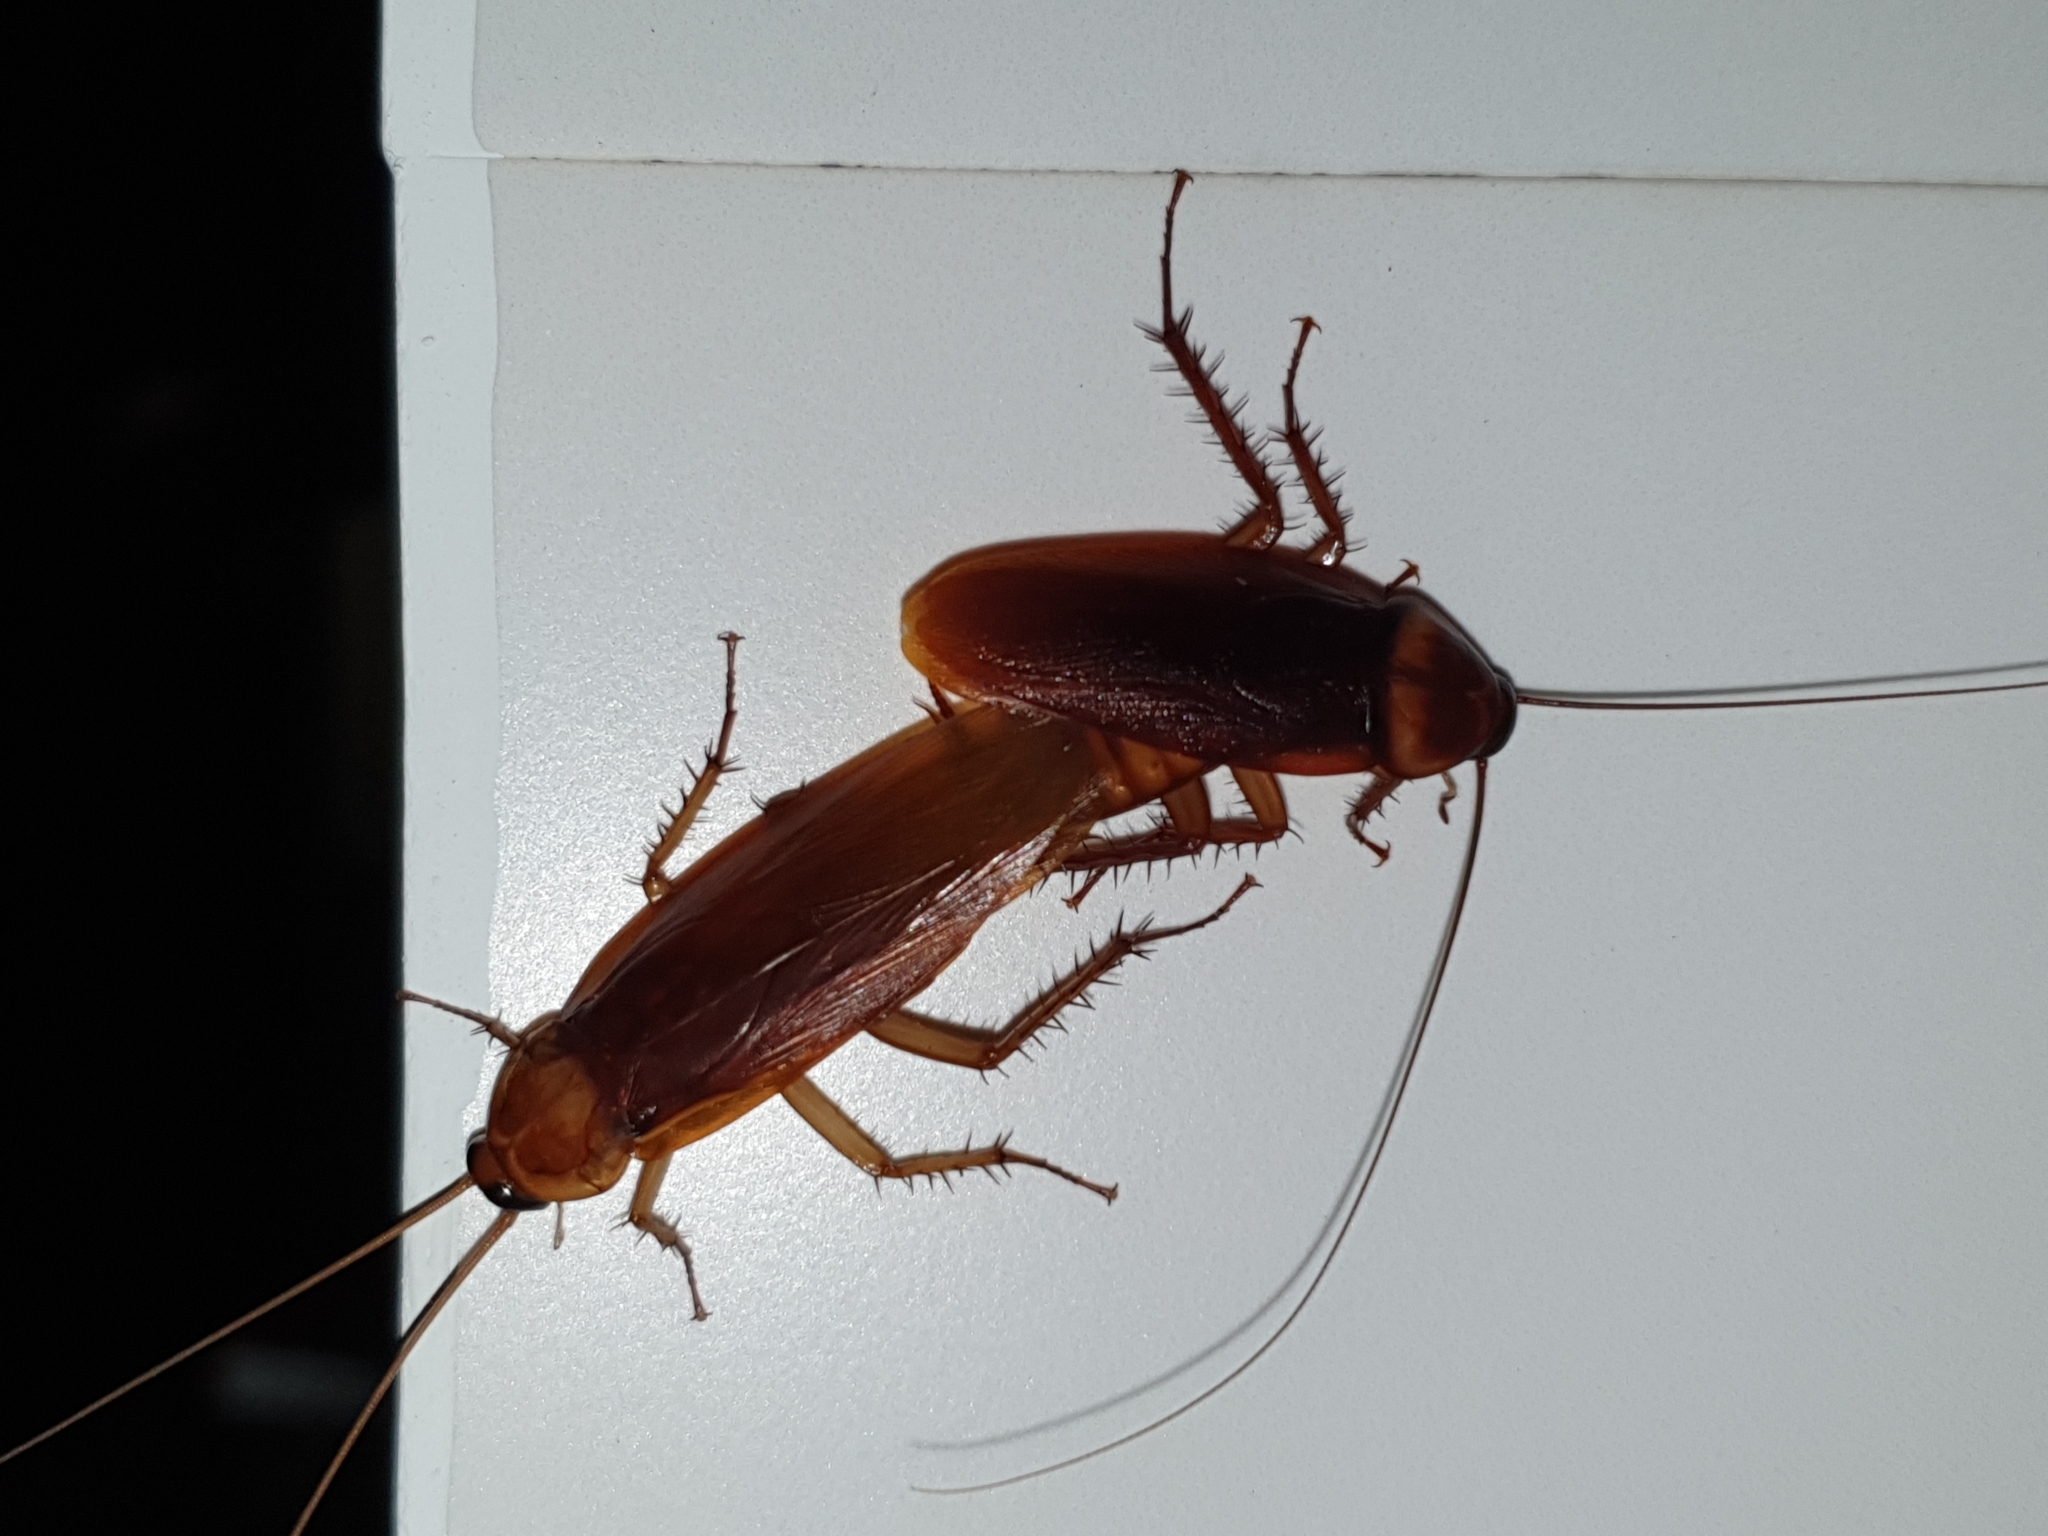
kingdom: Animalia
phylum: Arthropoda
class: Insecta
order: Blattodea
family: Blattidae
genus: Periplaneta
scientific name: Periplaneta americana
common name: American cockroach
